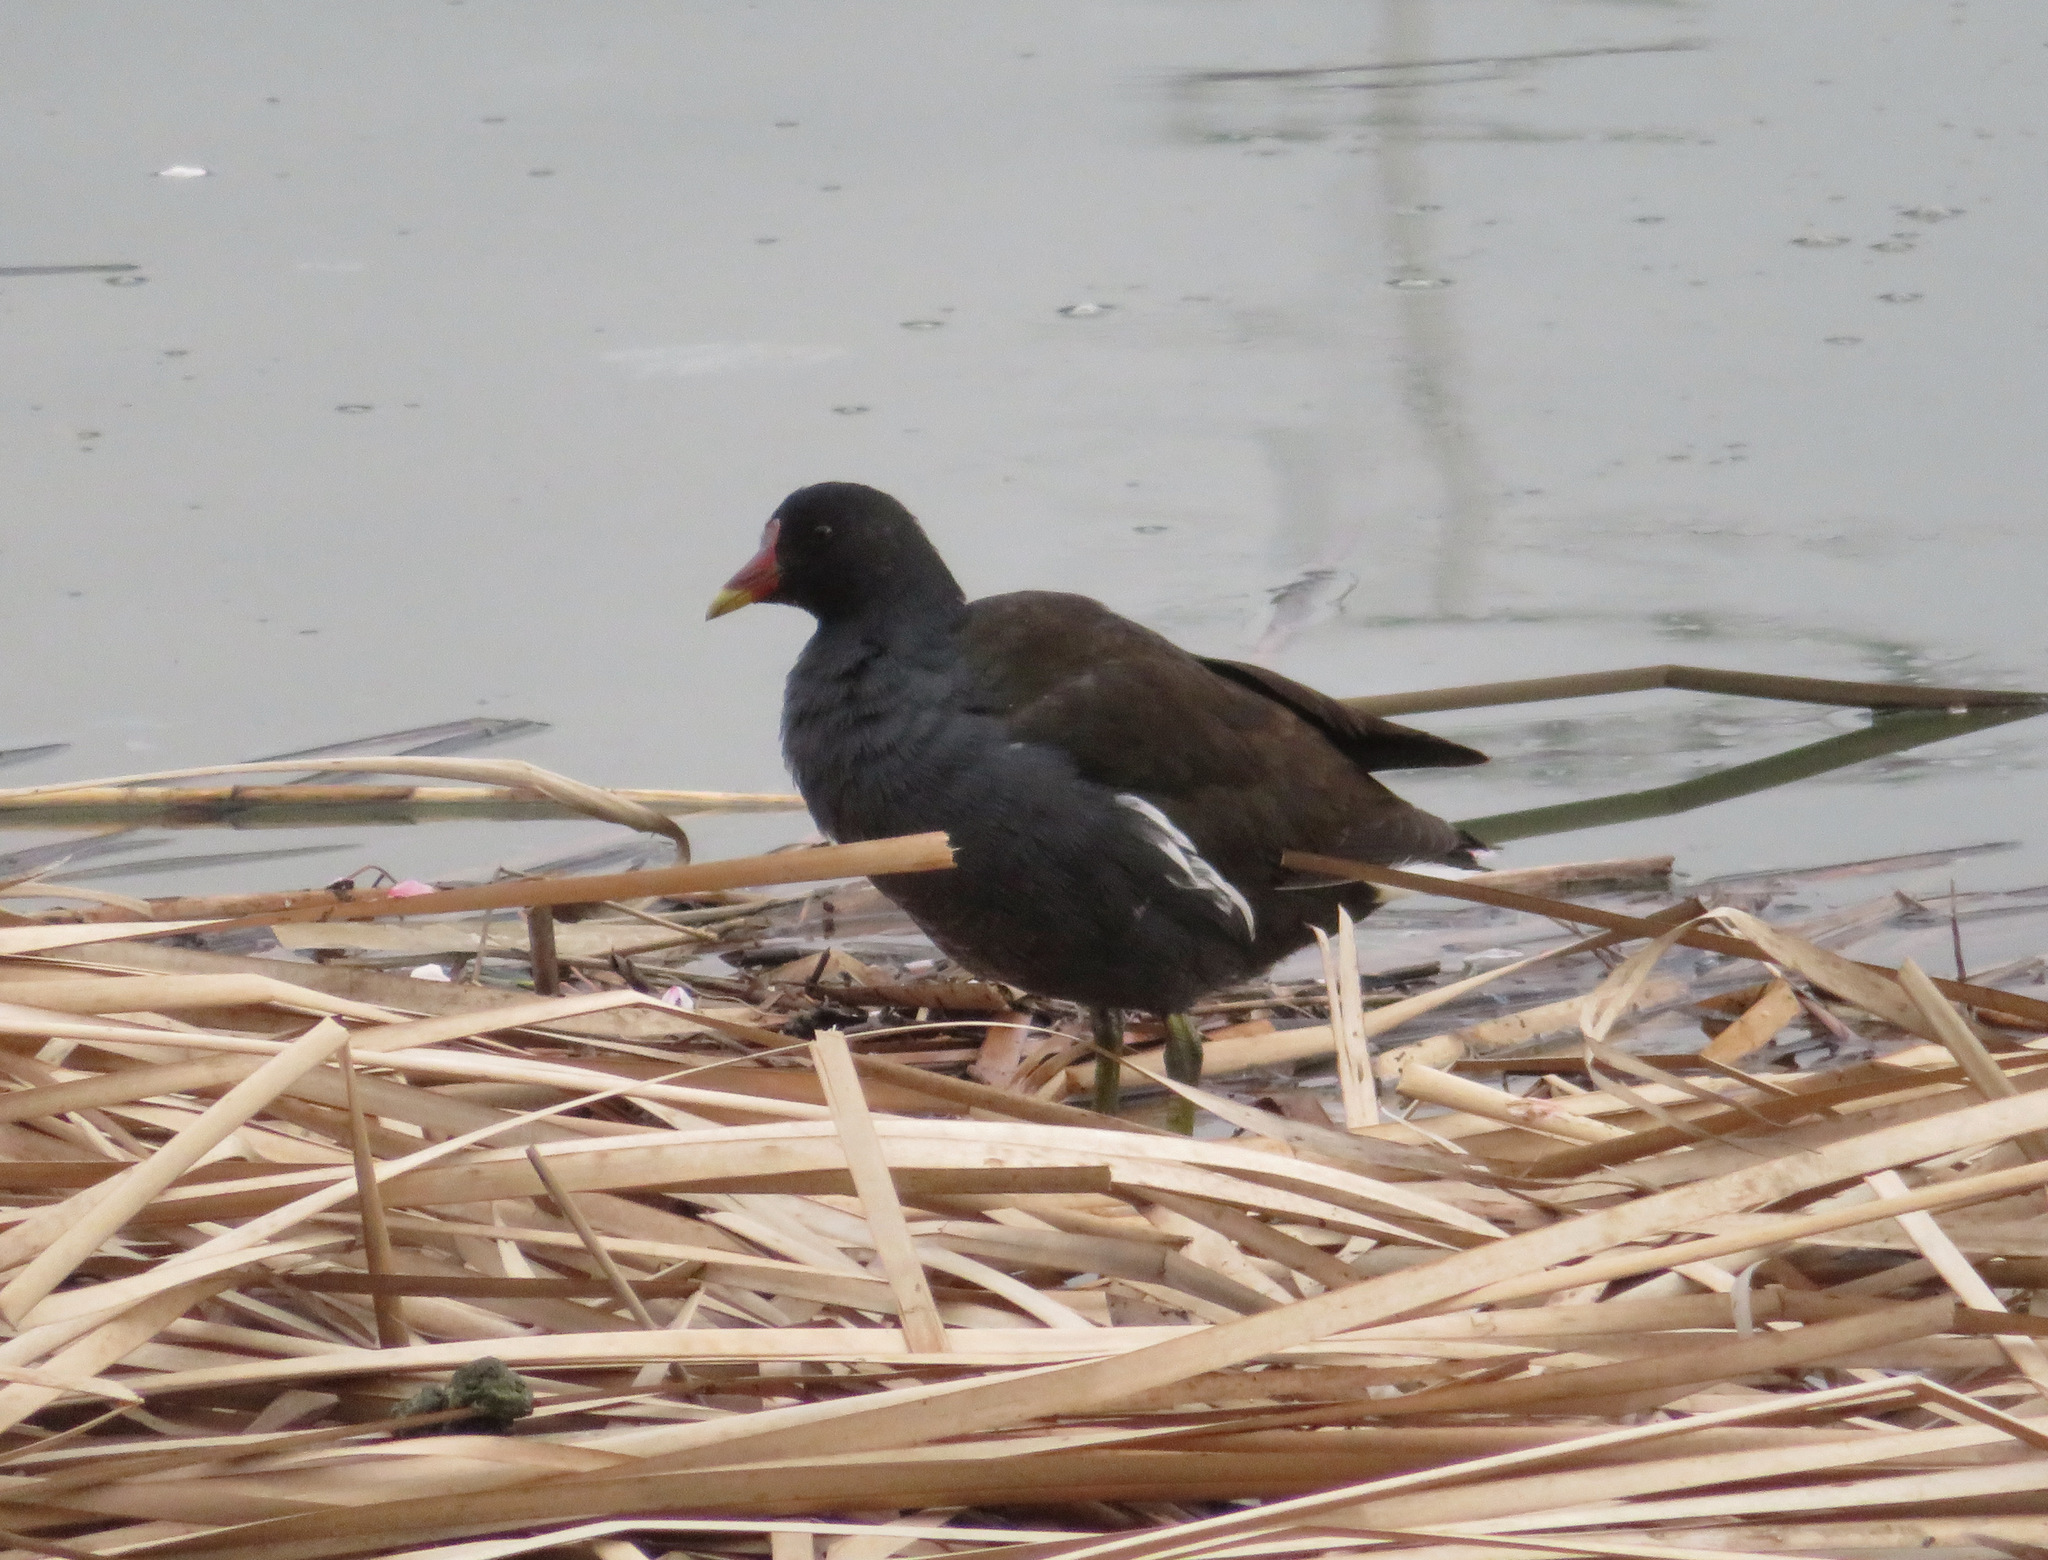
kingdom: Animalia
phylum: Chordata
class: Aves
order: Gruiformes
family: Rallidae
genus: Gallinula
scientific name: Gallinula chloropus
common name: Common moorhen
